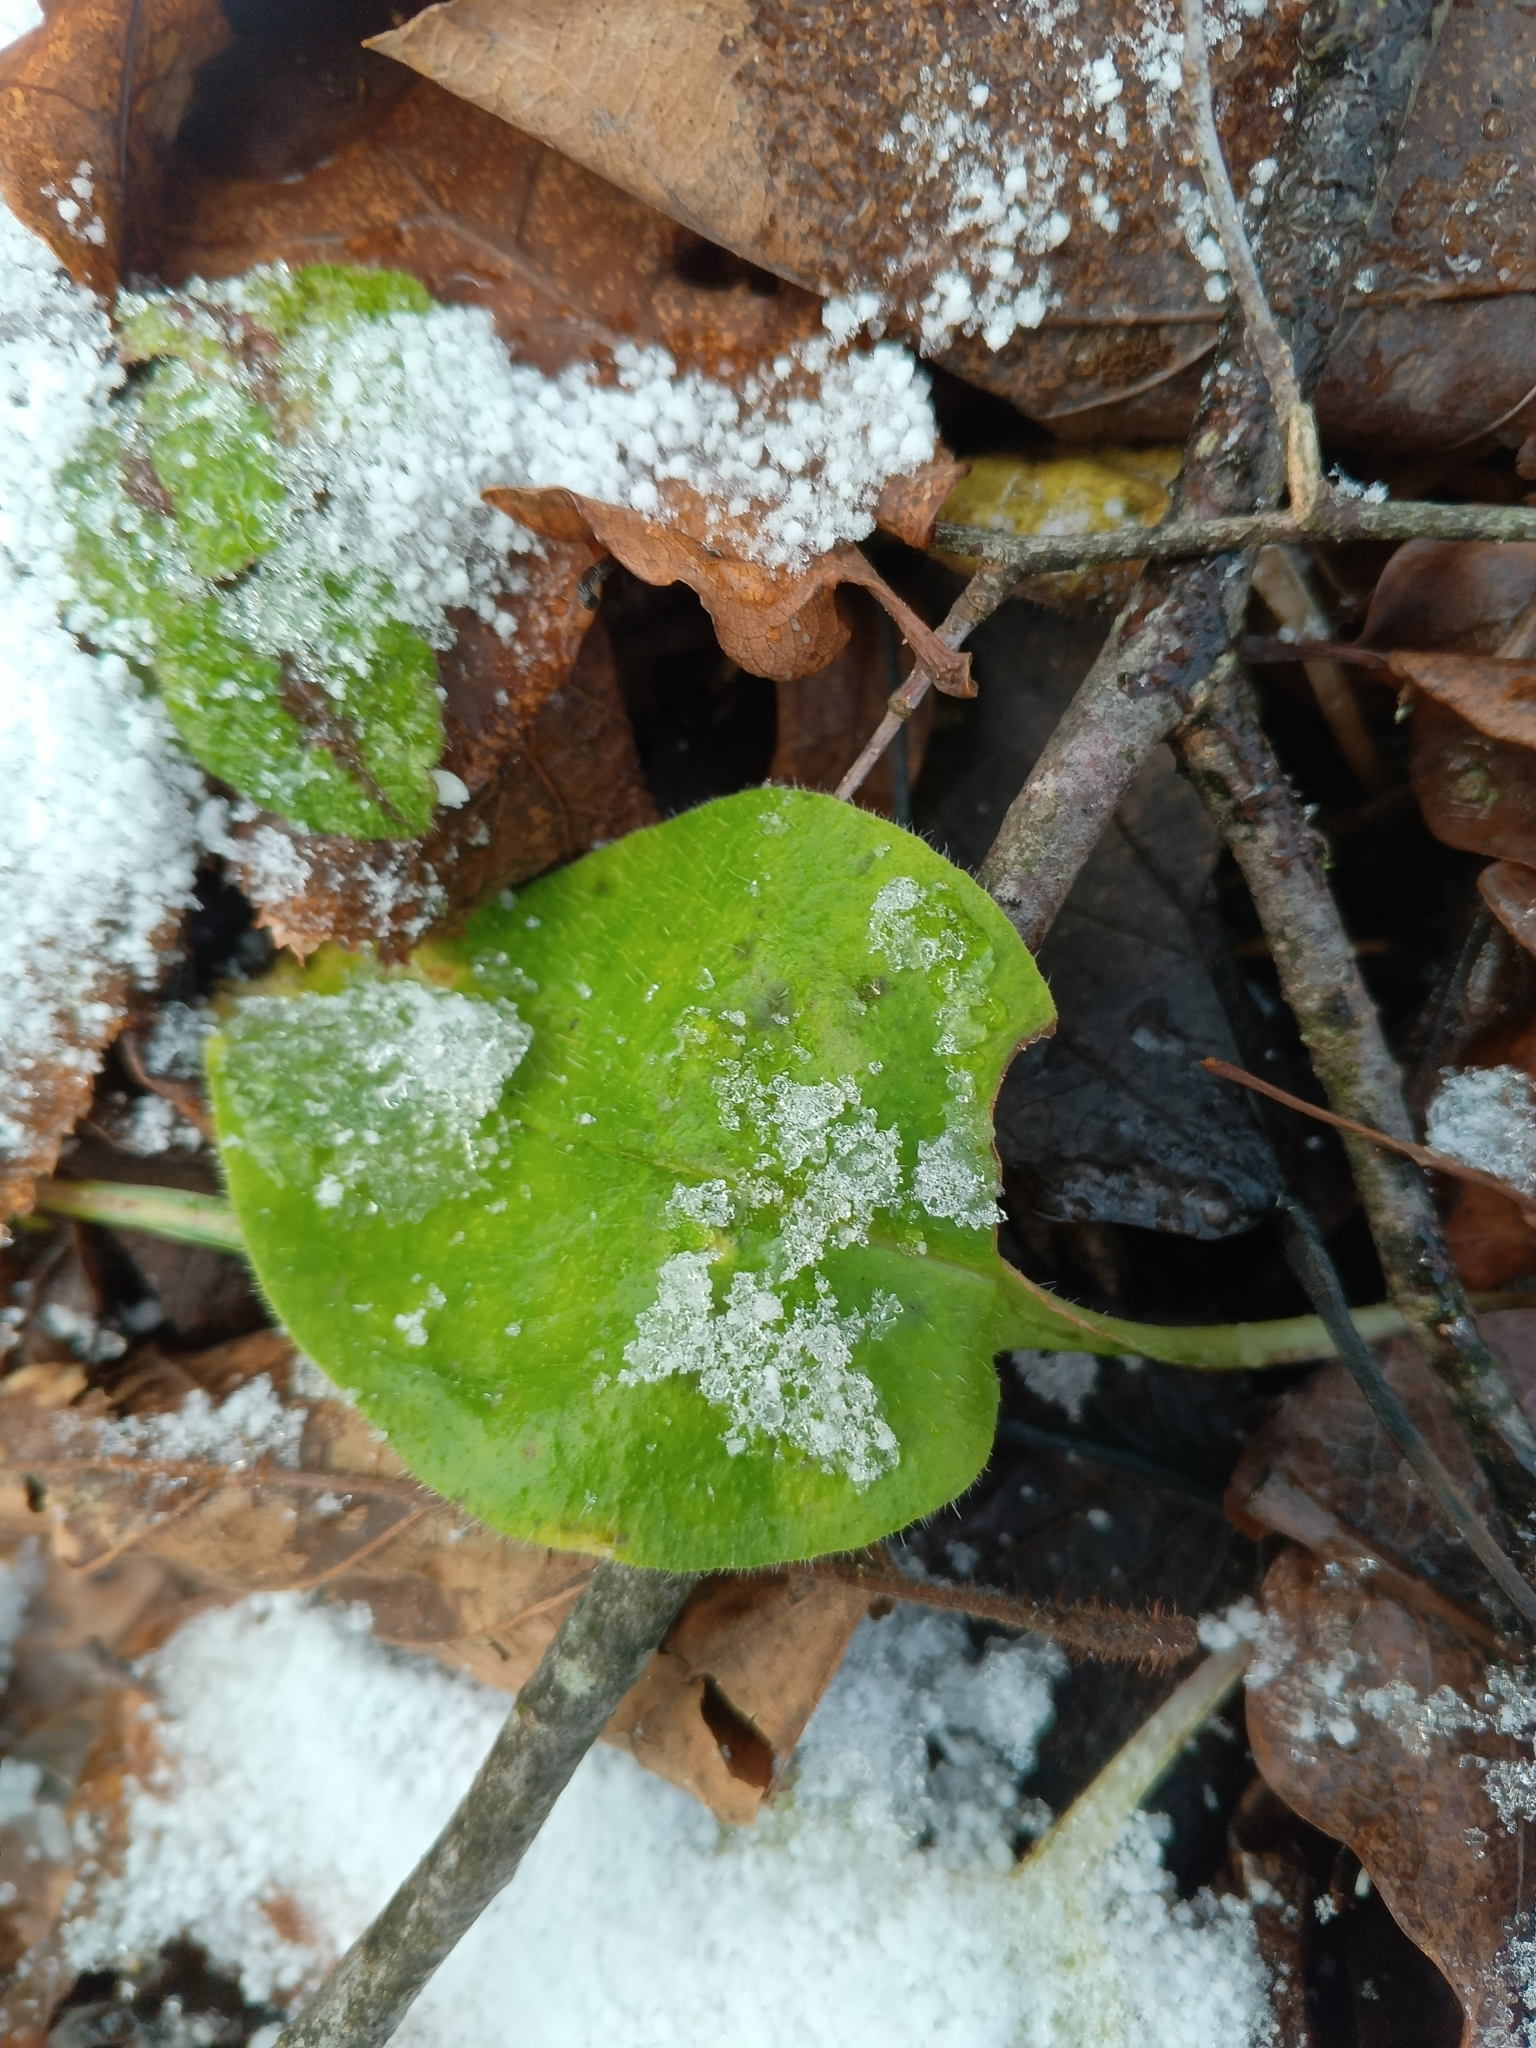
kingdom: Plantae
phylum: Tracheophyta
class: Magnoliopsida
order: Boraginales
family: Boraginaceae
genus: Pulmonaria
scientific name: Pulmonaria obscura
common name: Suffolk lungwort
